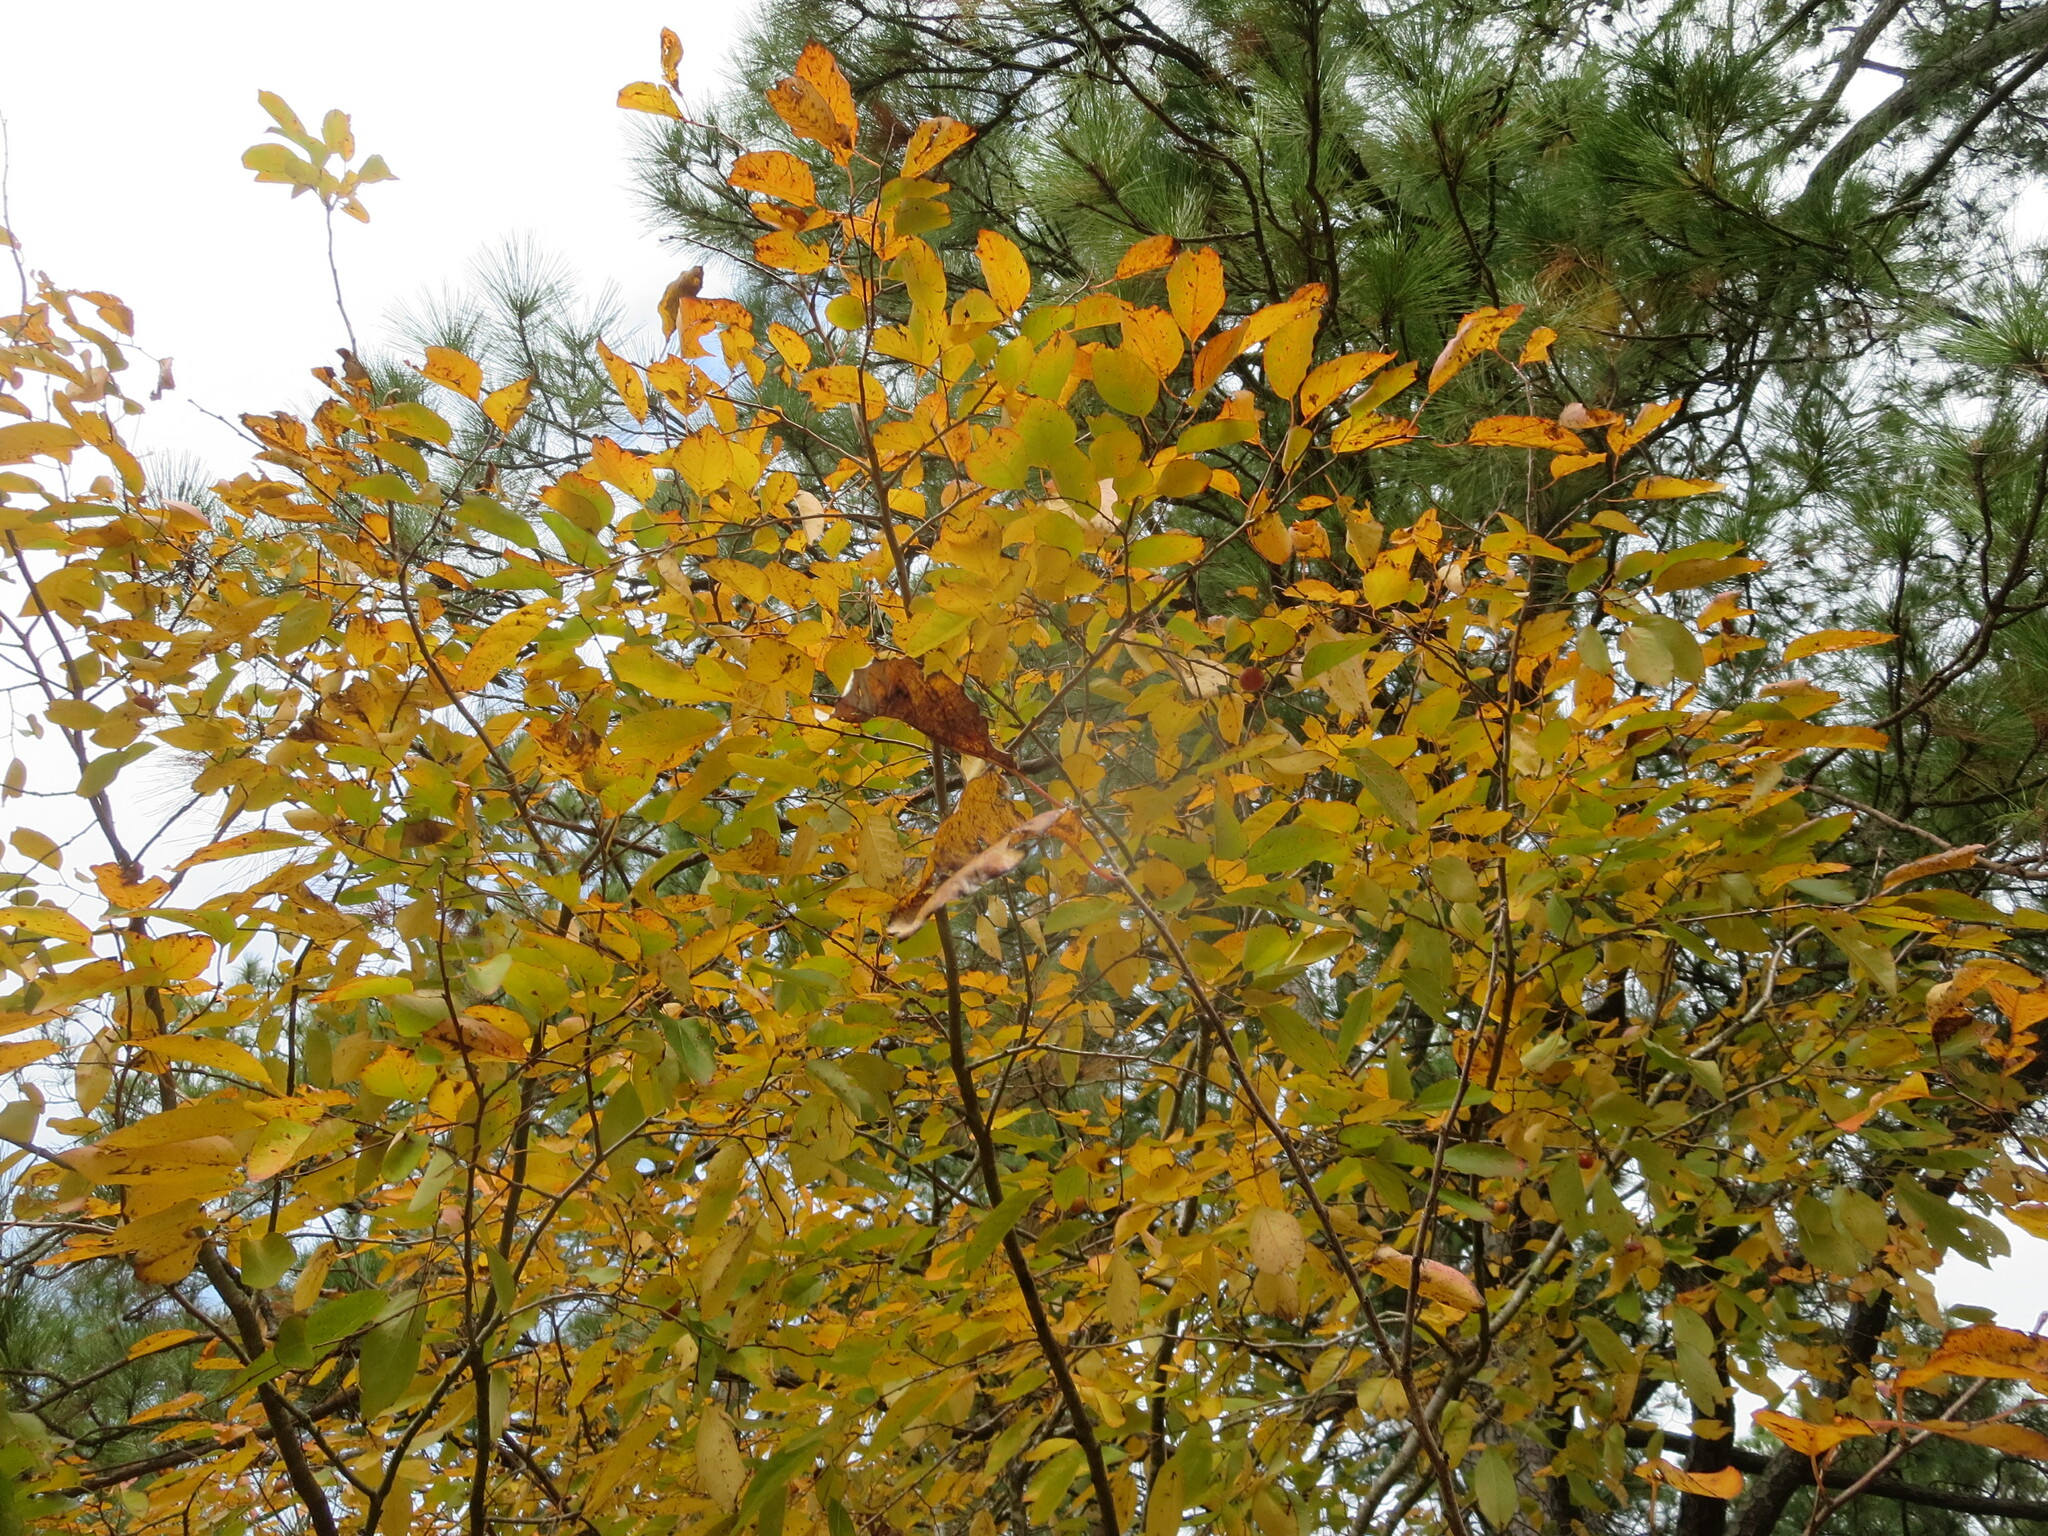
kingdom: Plantae
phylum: Tracheophyta
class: Magnoliopsida
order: Ericales
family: Ebenaceae
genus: Diospyros
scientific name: Diospyros virginiana
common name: Persimmon
